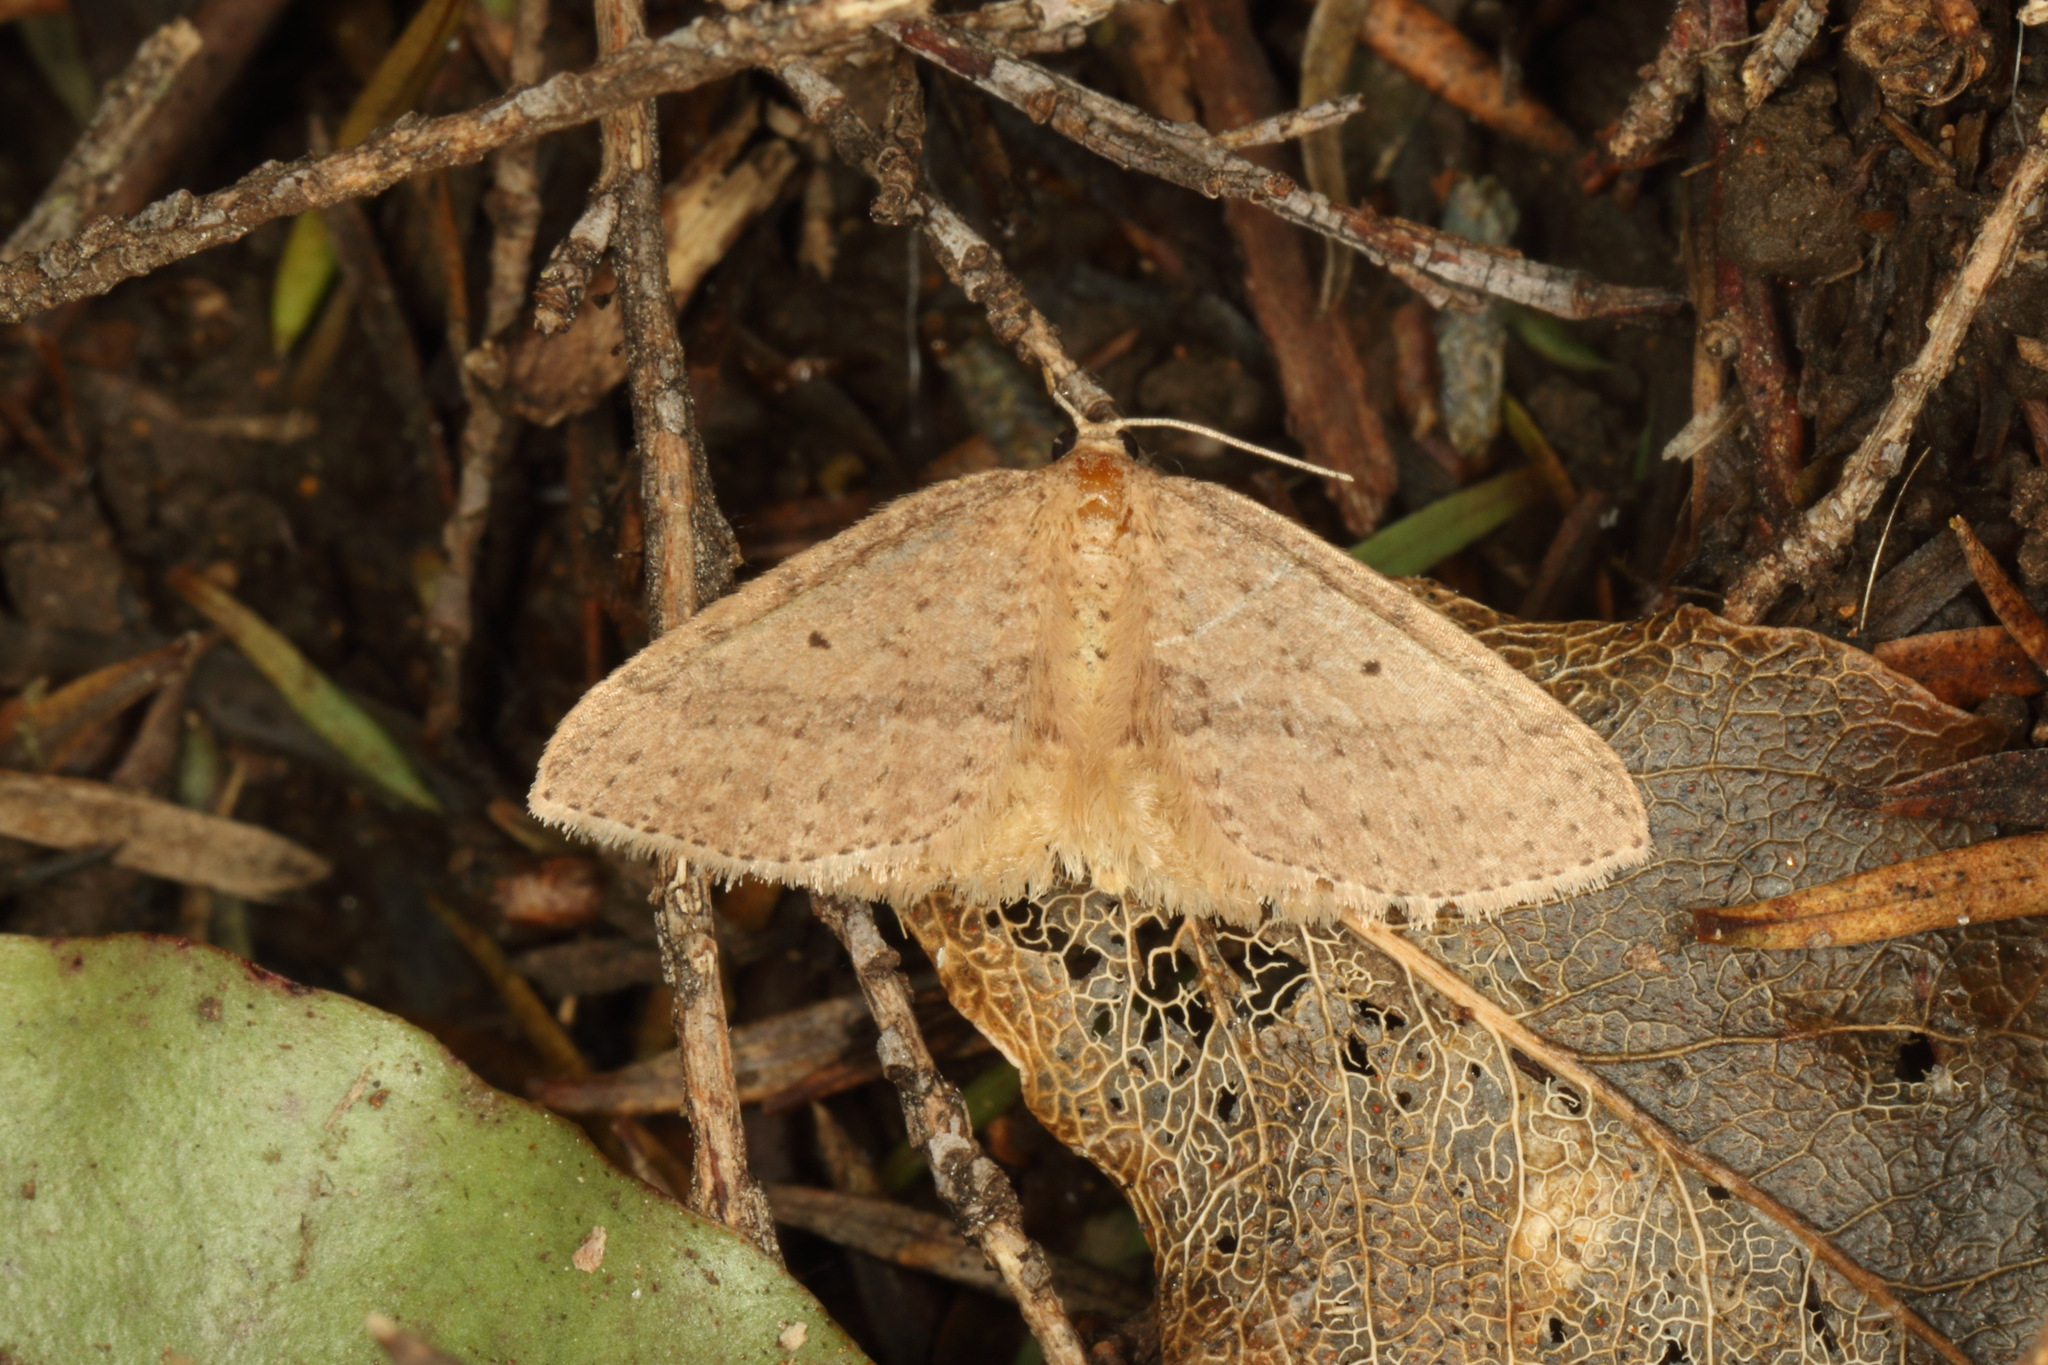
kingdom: Animalia
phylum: Arthropoda
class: Insecta
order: Lepidoptera
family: Geometridae
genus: Poecilasthena
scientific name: Poecilasthena schistaria
